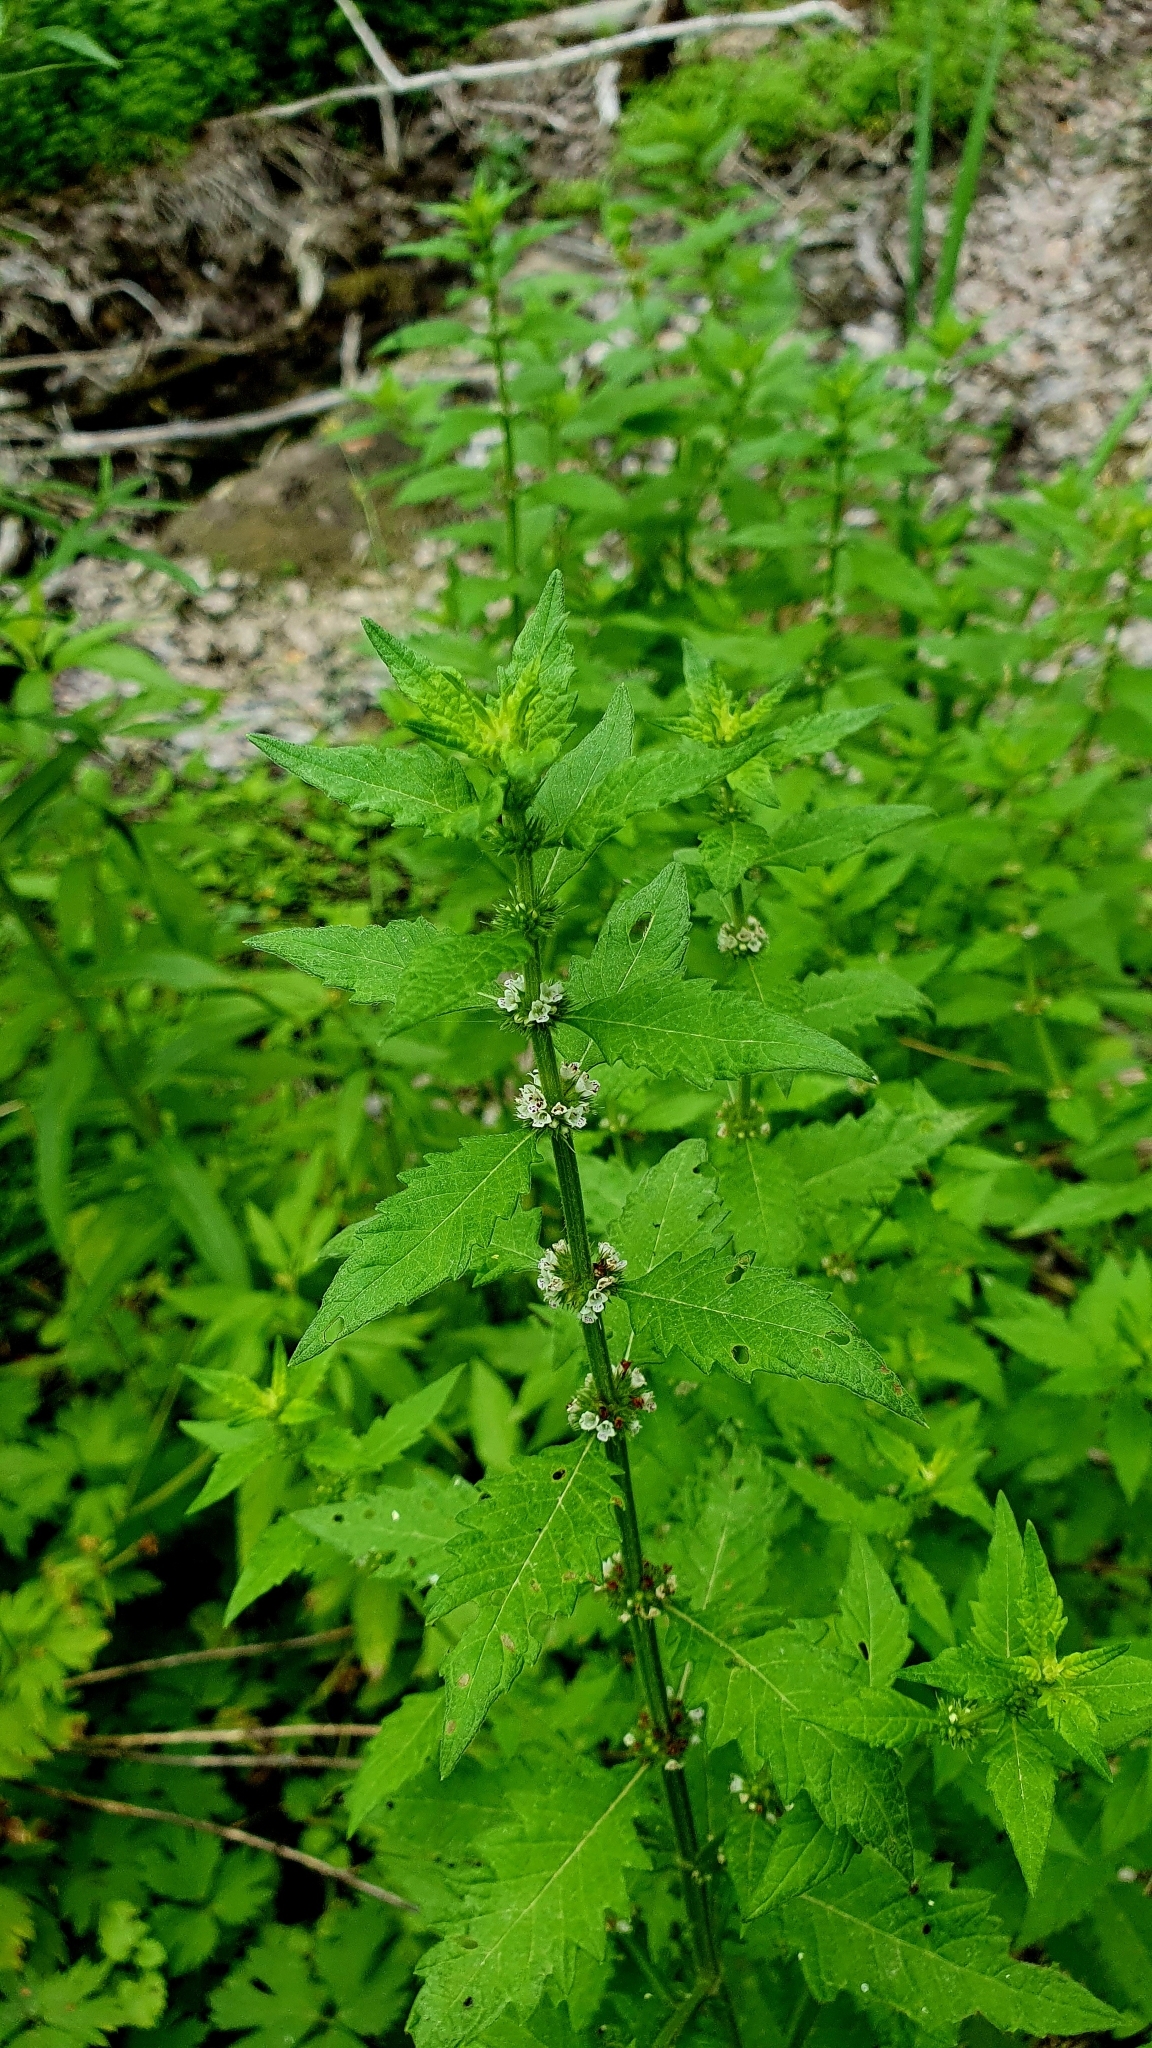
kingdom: Plantae
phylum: Tracheophyta
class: Magnoliopsida
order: Lamiales
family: Lamiaceae
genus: Lycopus
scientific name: Lycopus europaeus
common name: European bugleweed
